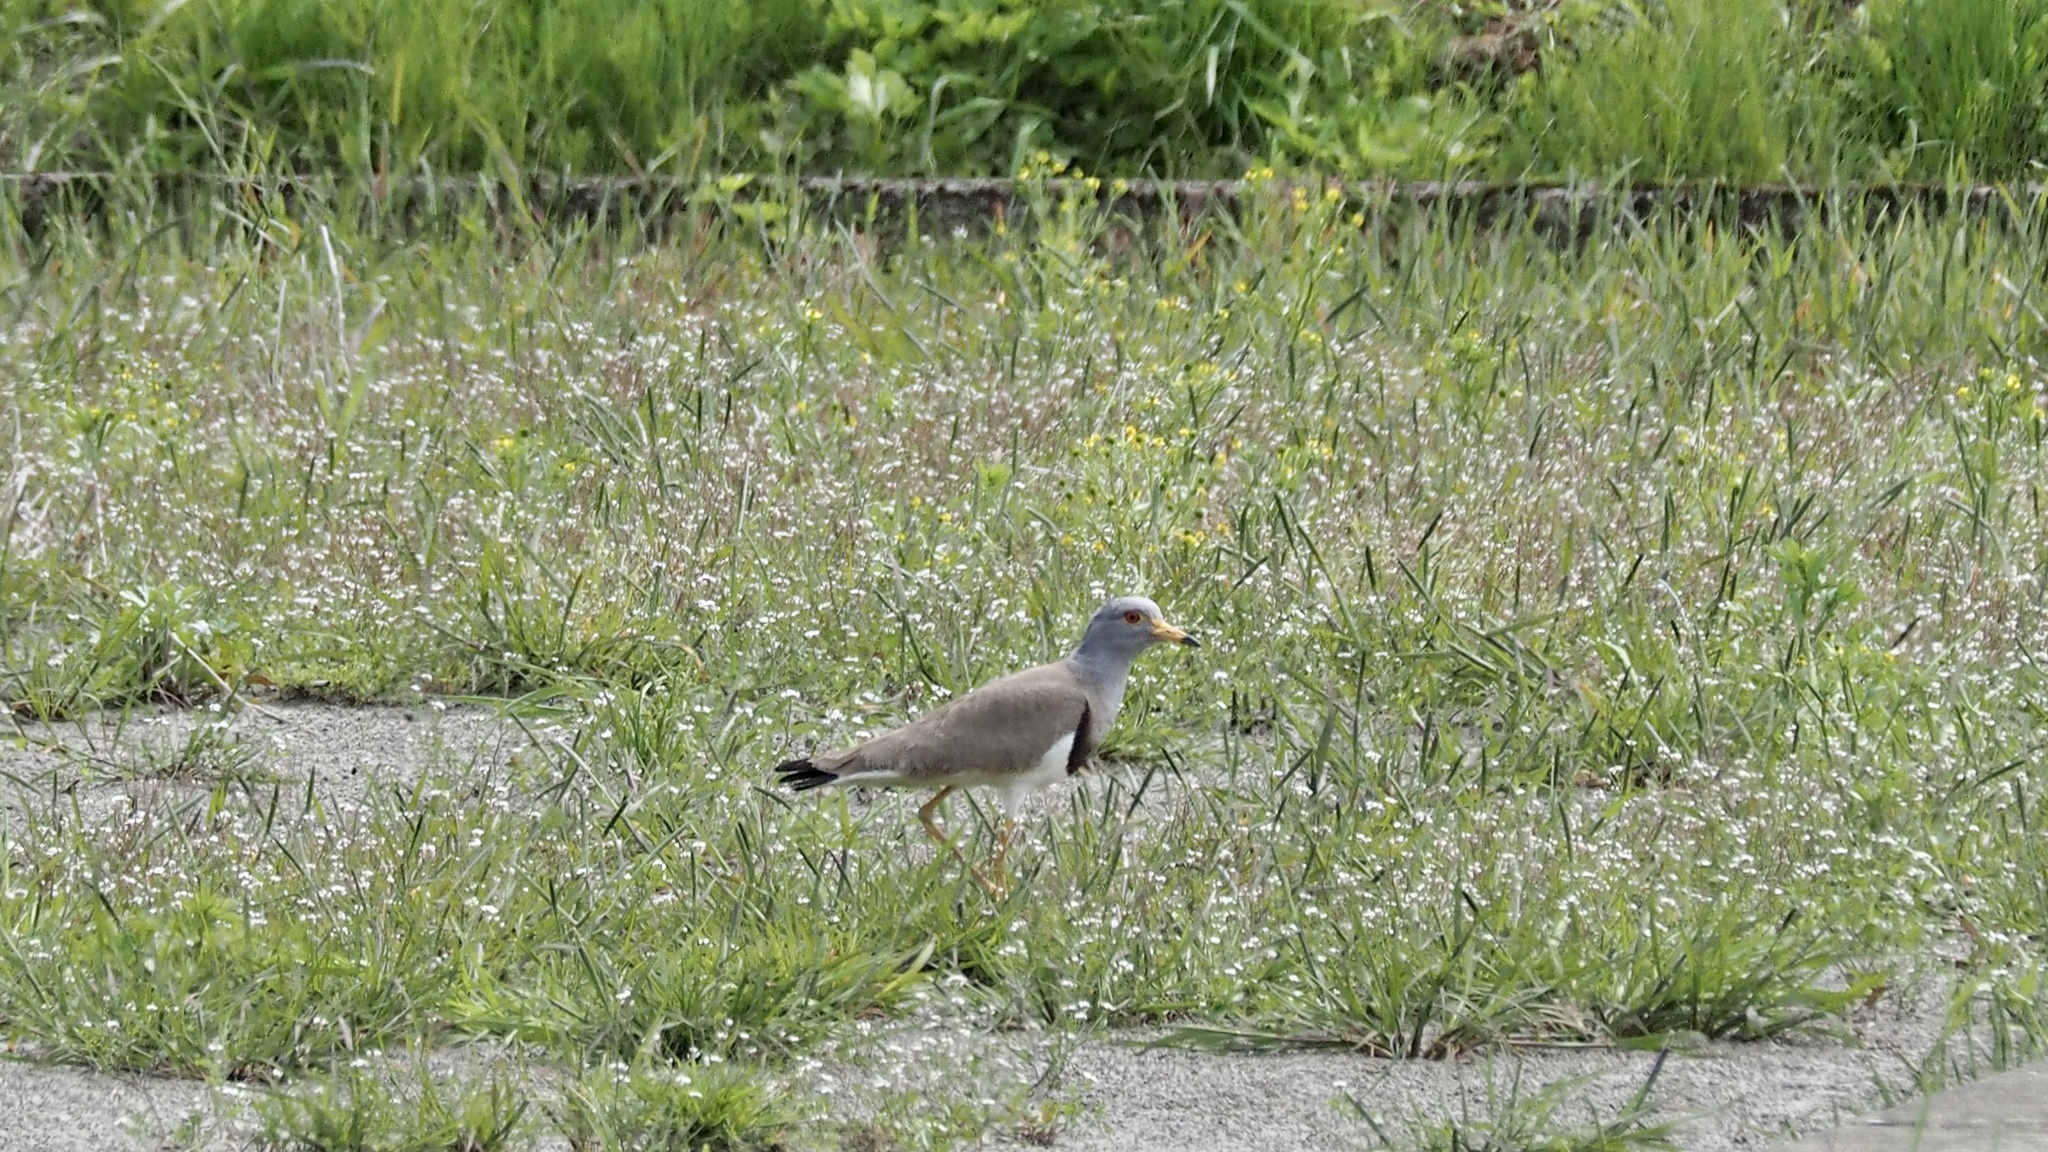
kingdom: Animalia
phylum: Chordata
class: Aves
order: Charadriiformes
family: Charadriidae
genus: Vanellus
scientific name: Vanellus cinereus
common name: Grey-headed lapwing
